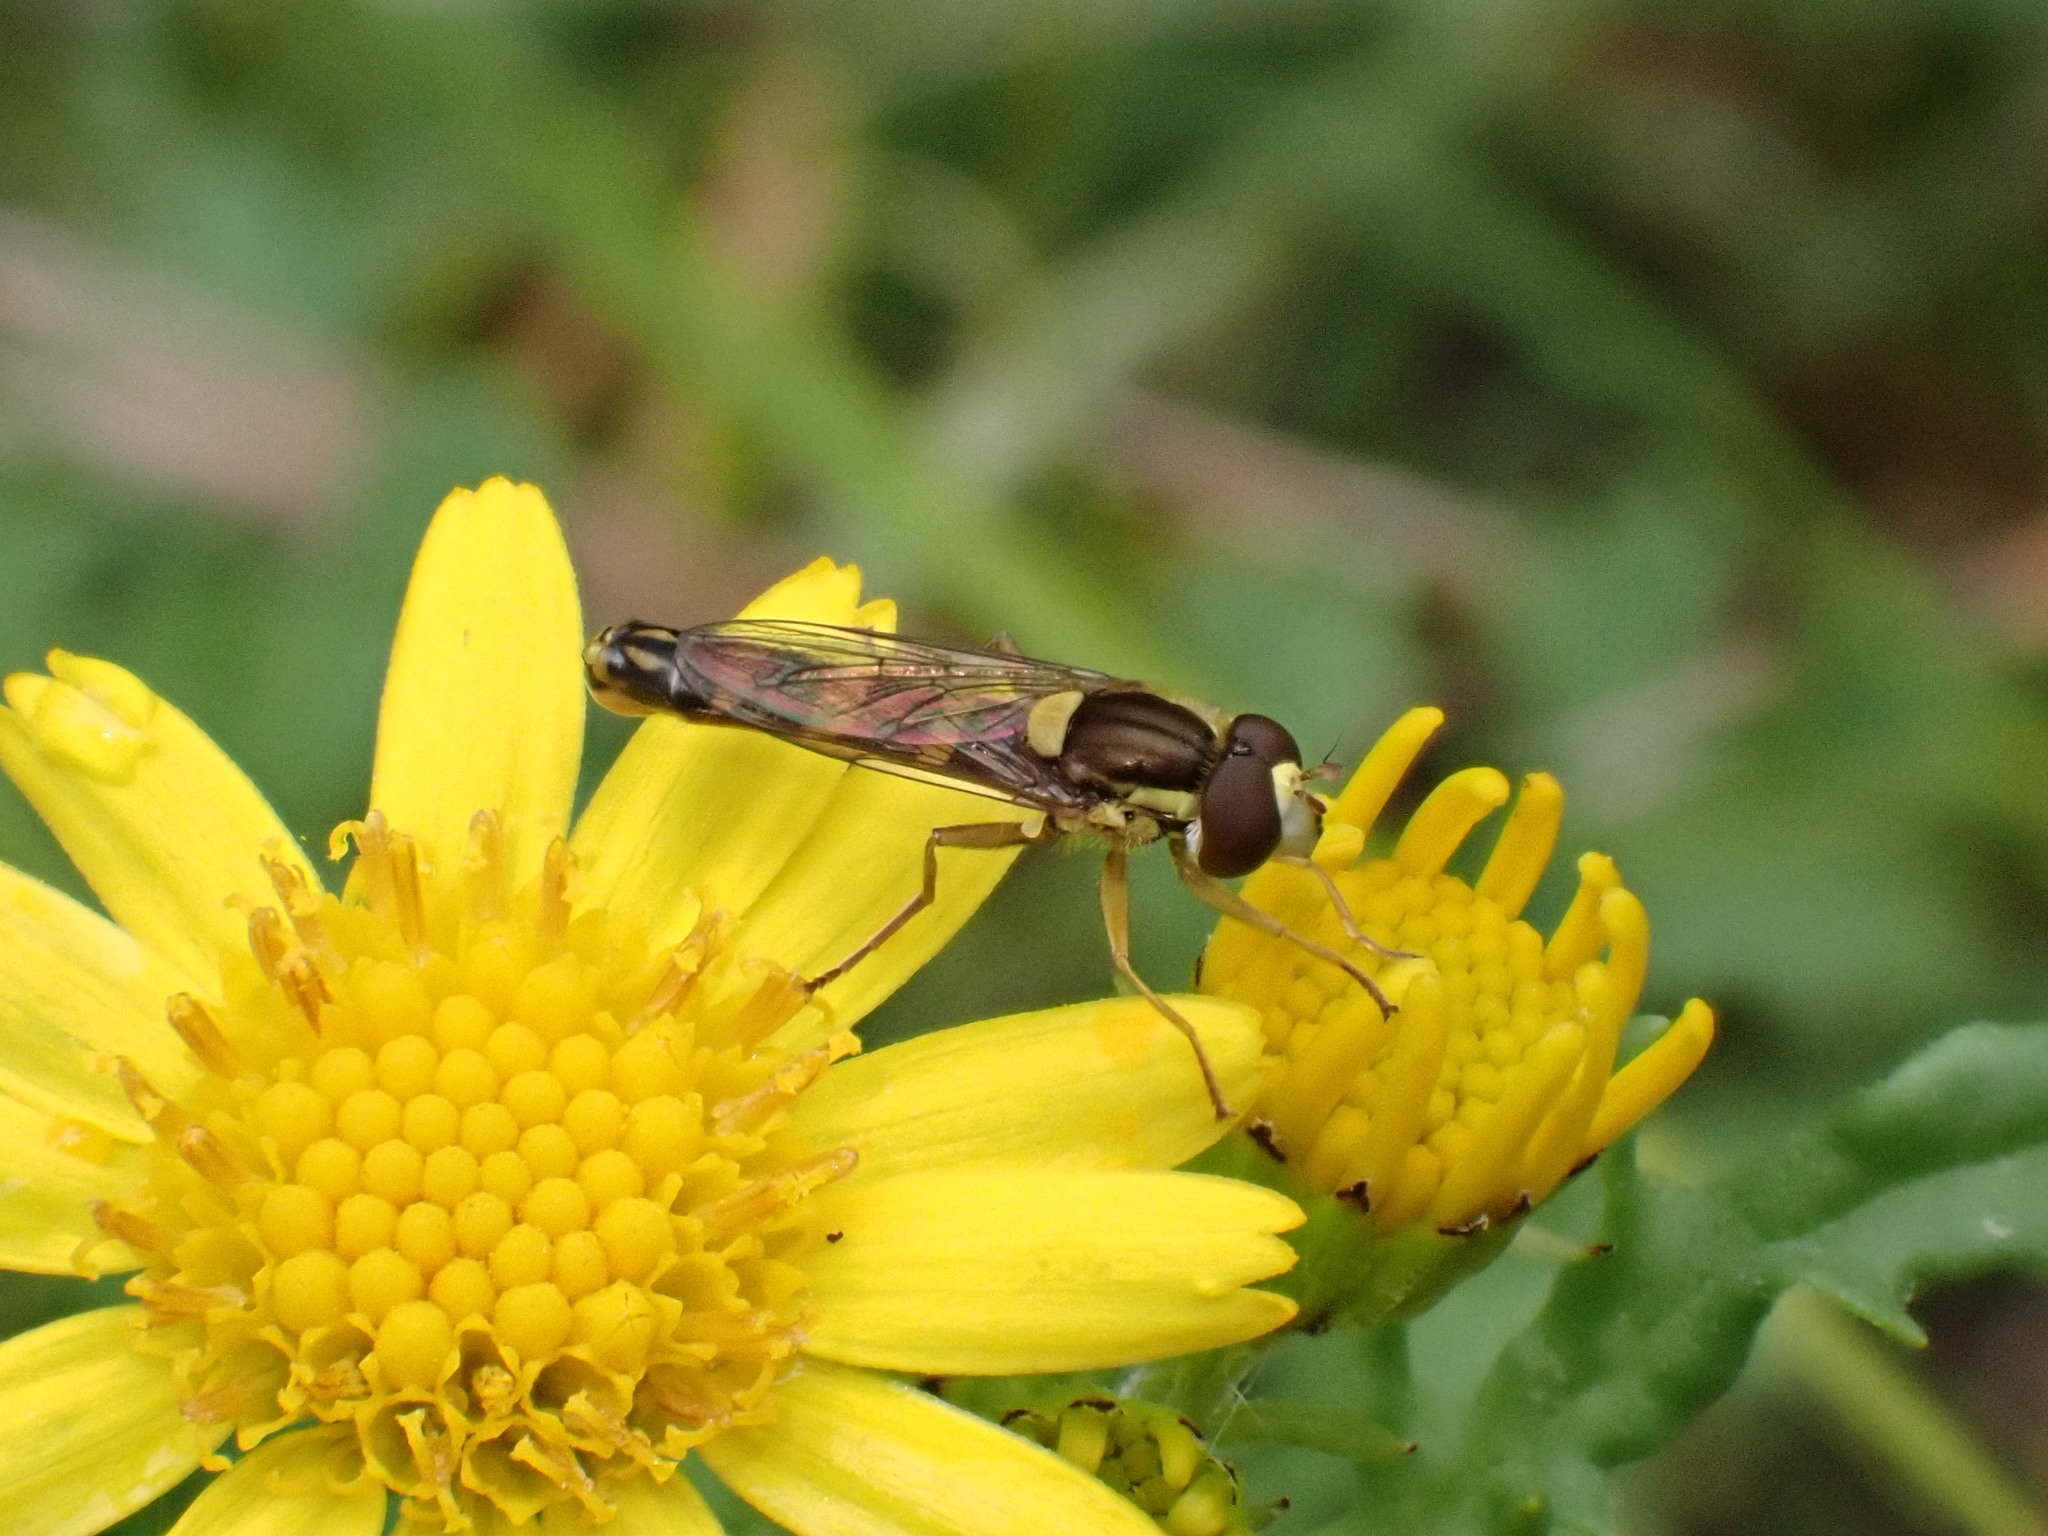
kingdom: Animalia
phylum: Arthropoda
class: Insecta
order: Diptera
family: Syrphidae
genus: Sphaerophoria
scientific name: Sphaerophoria scripta
